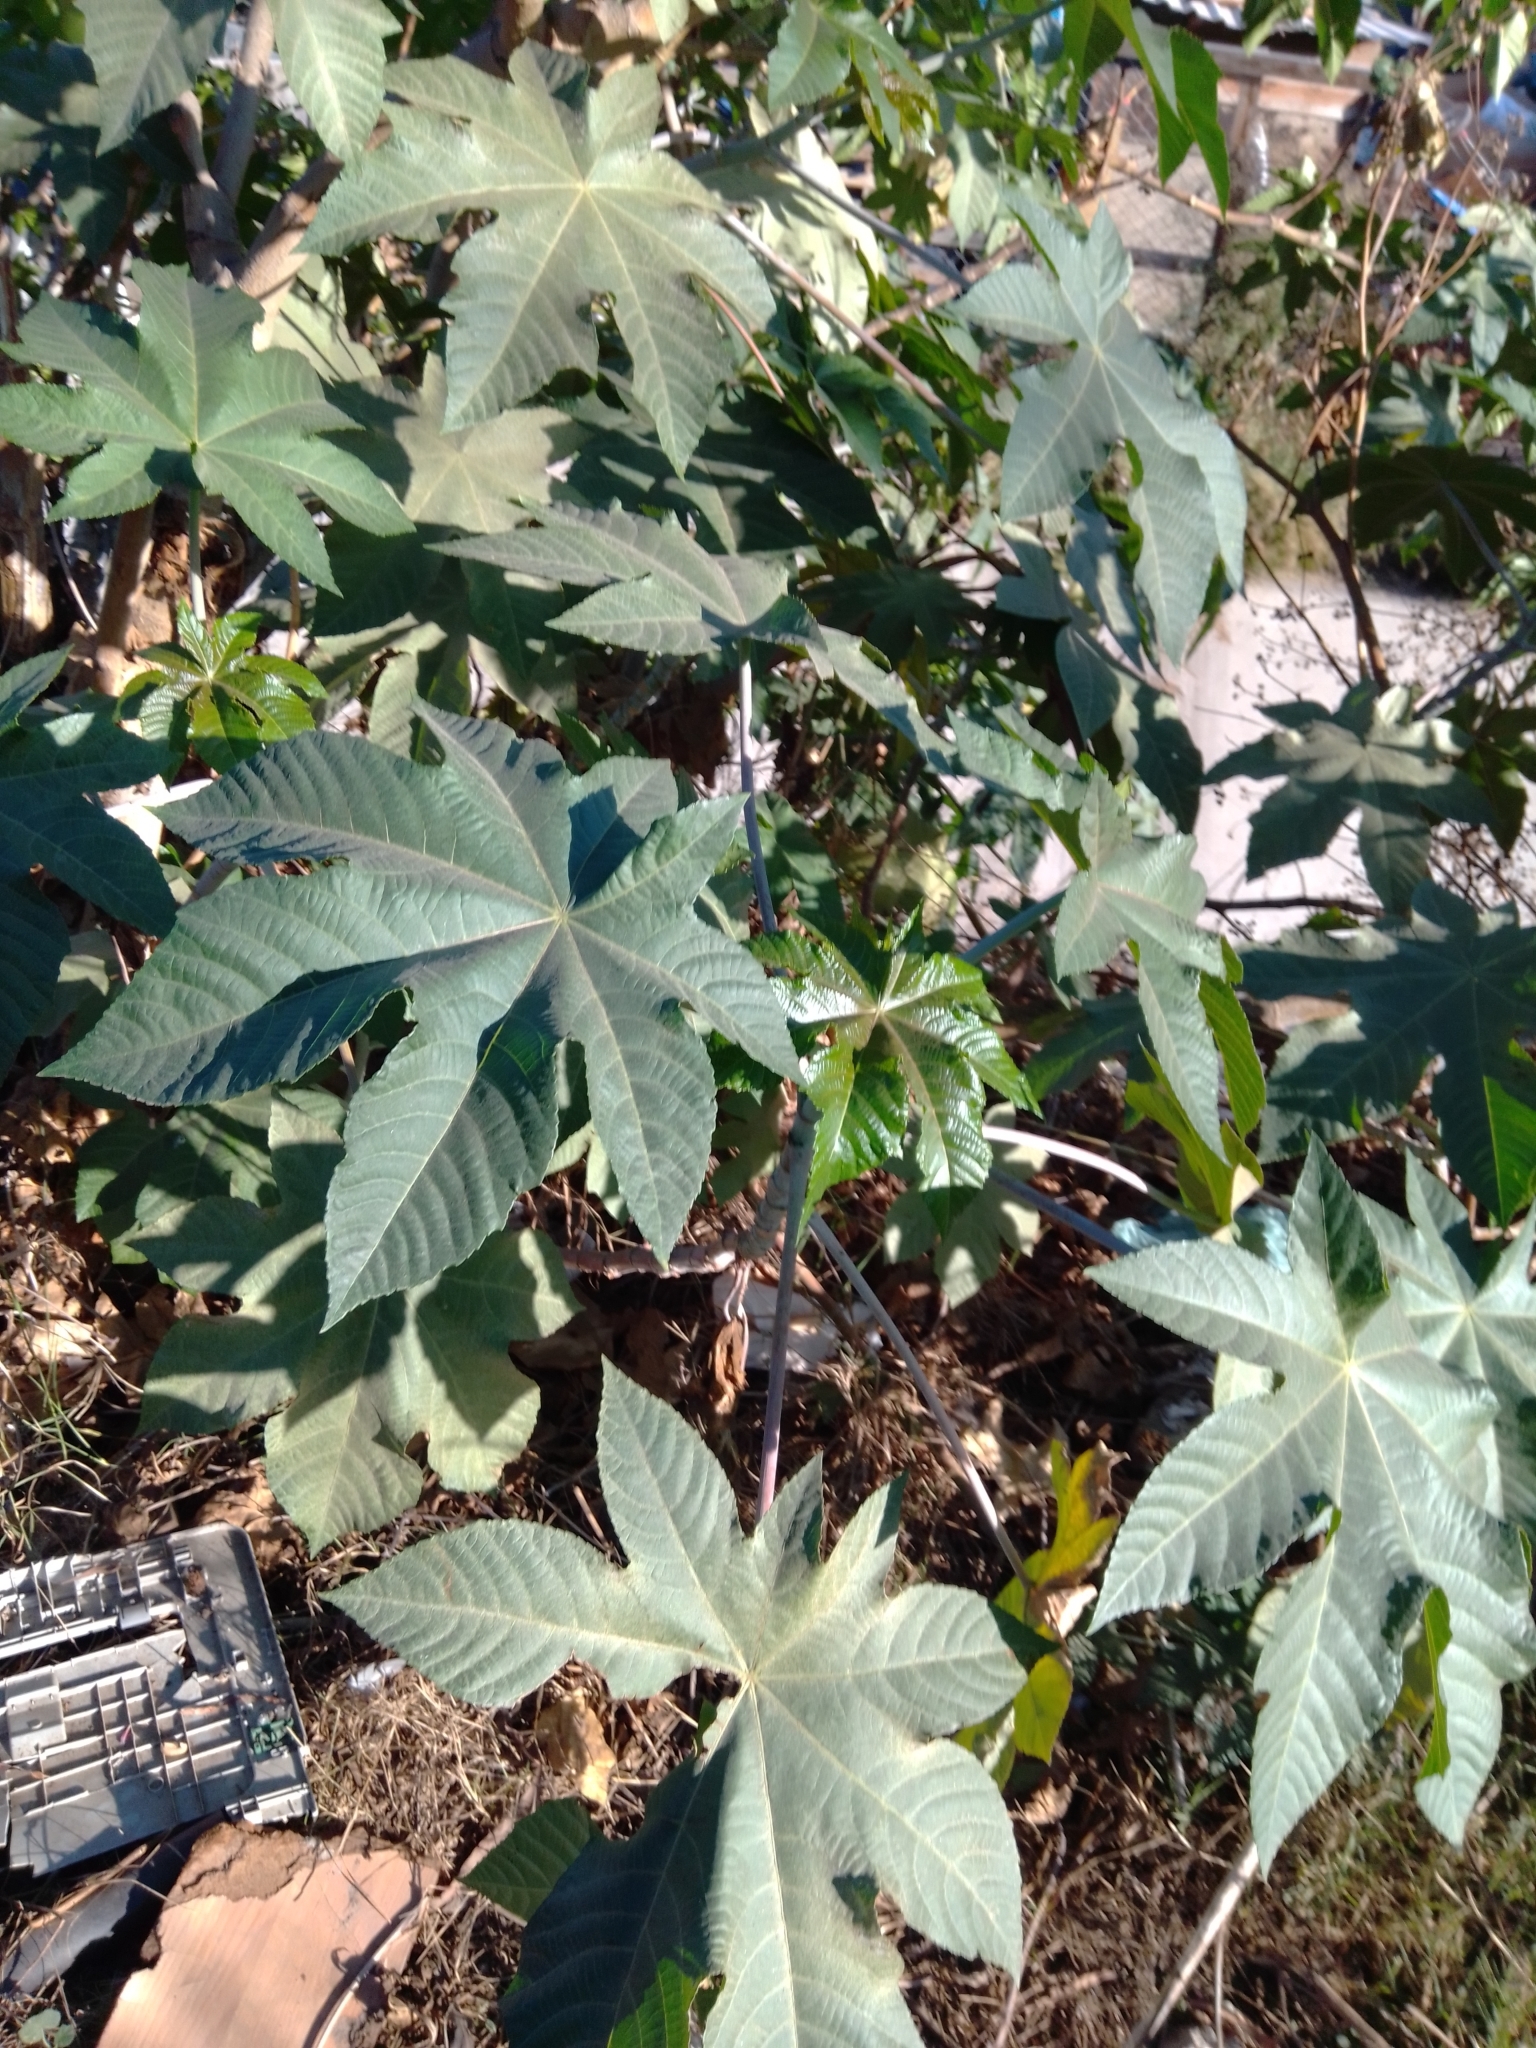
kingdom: Plantae
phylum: Tracheophyta
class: Magnoliopsida
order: Malpighiales
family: Euphorbiaceae
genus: Ricinus
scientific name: Ricinus communis
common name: Castor-oil-plant
